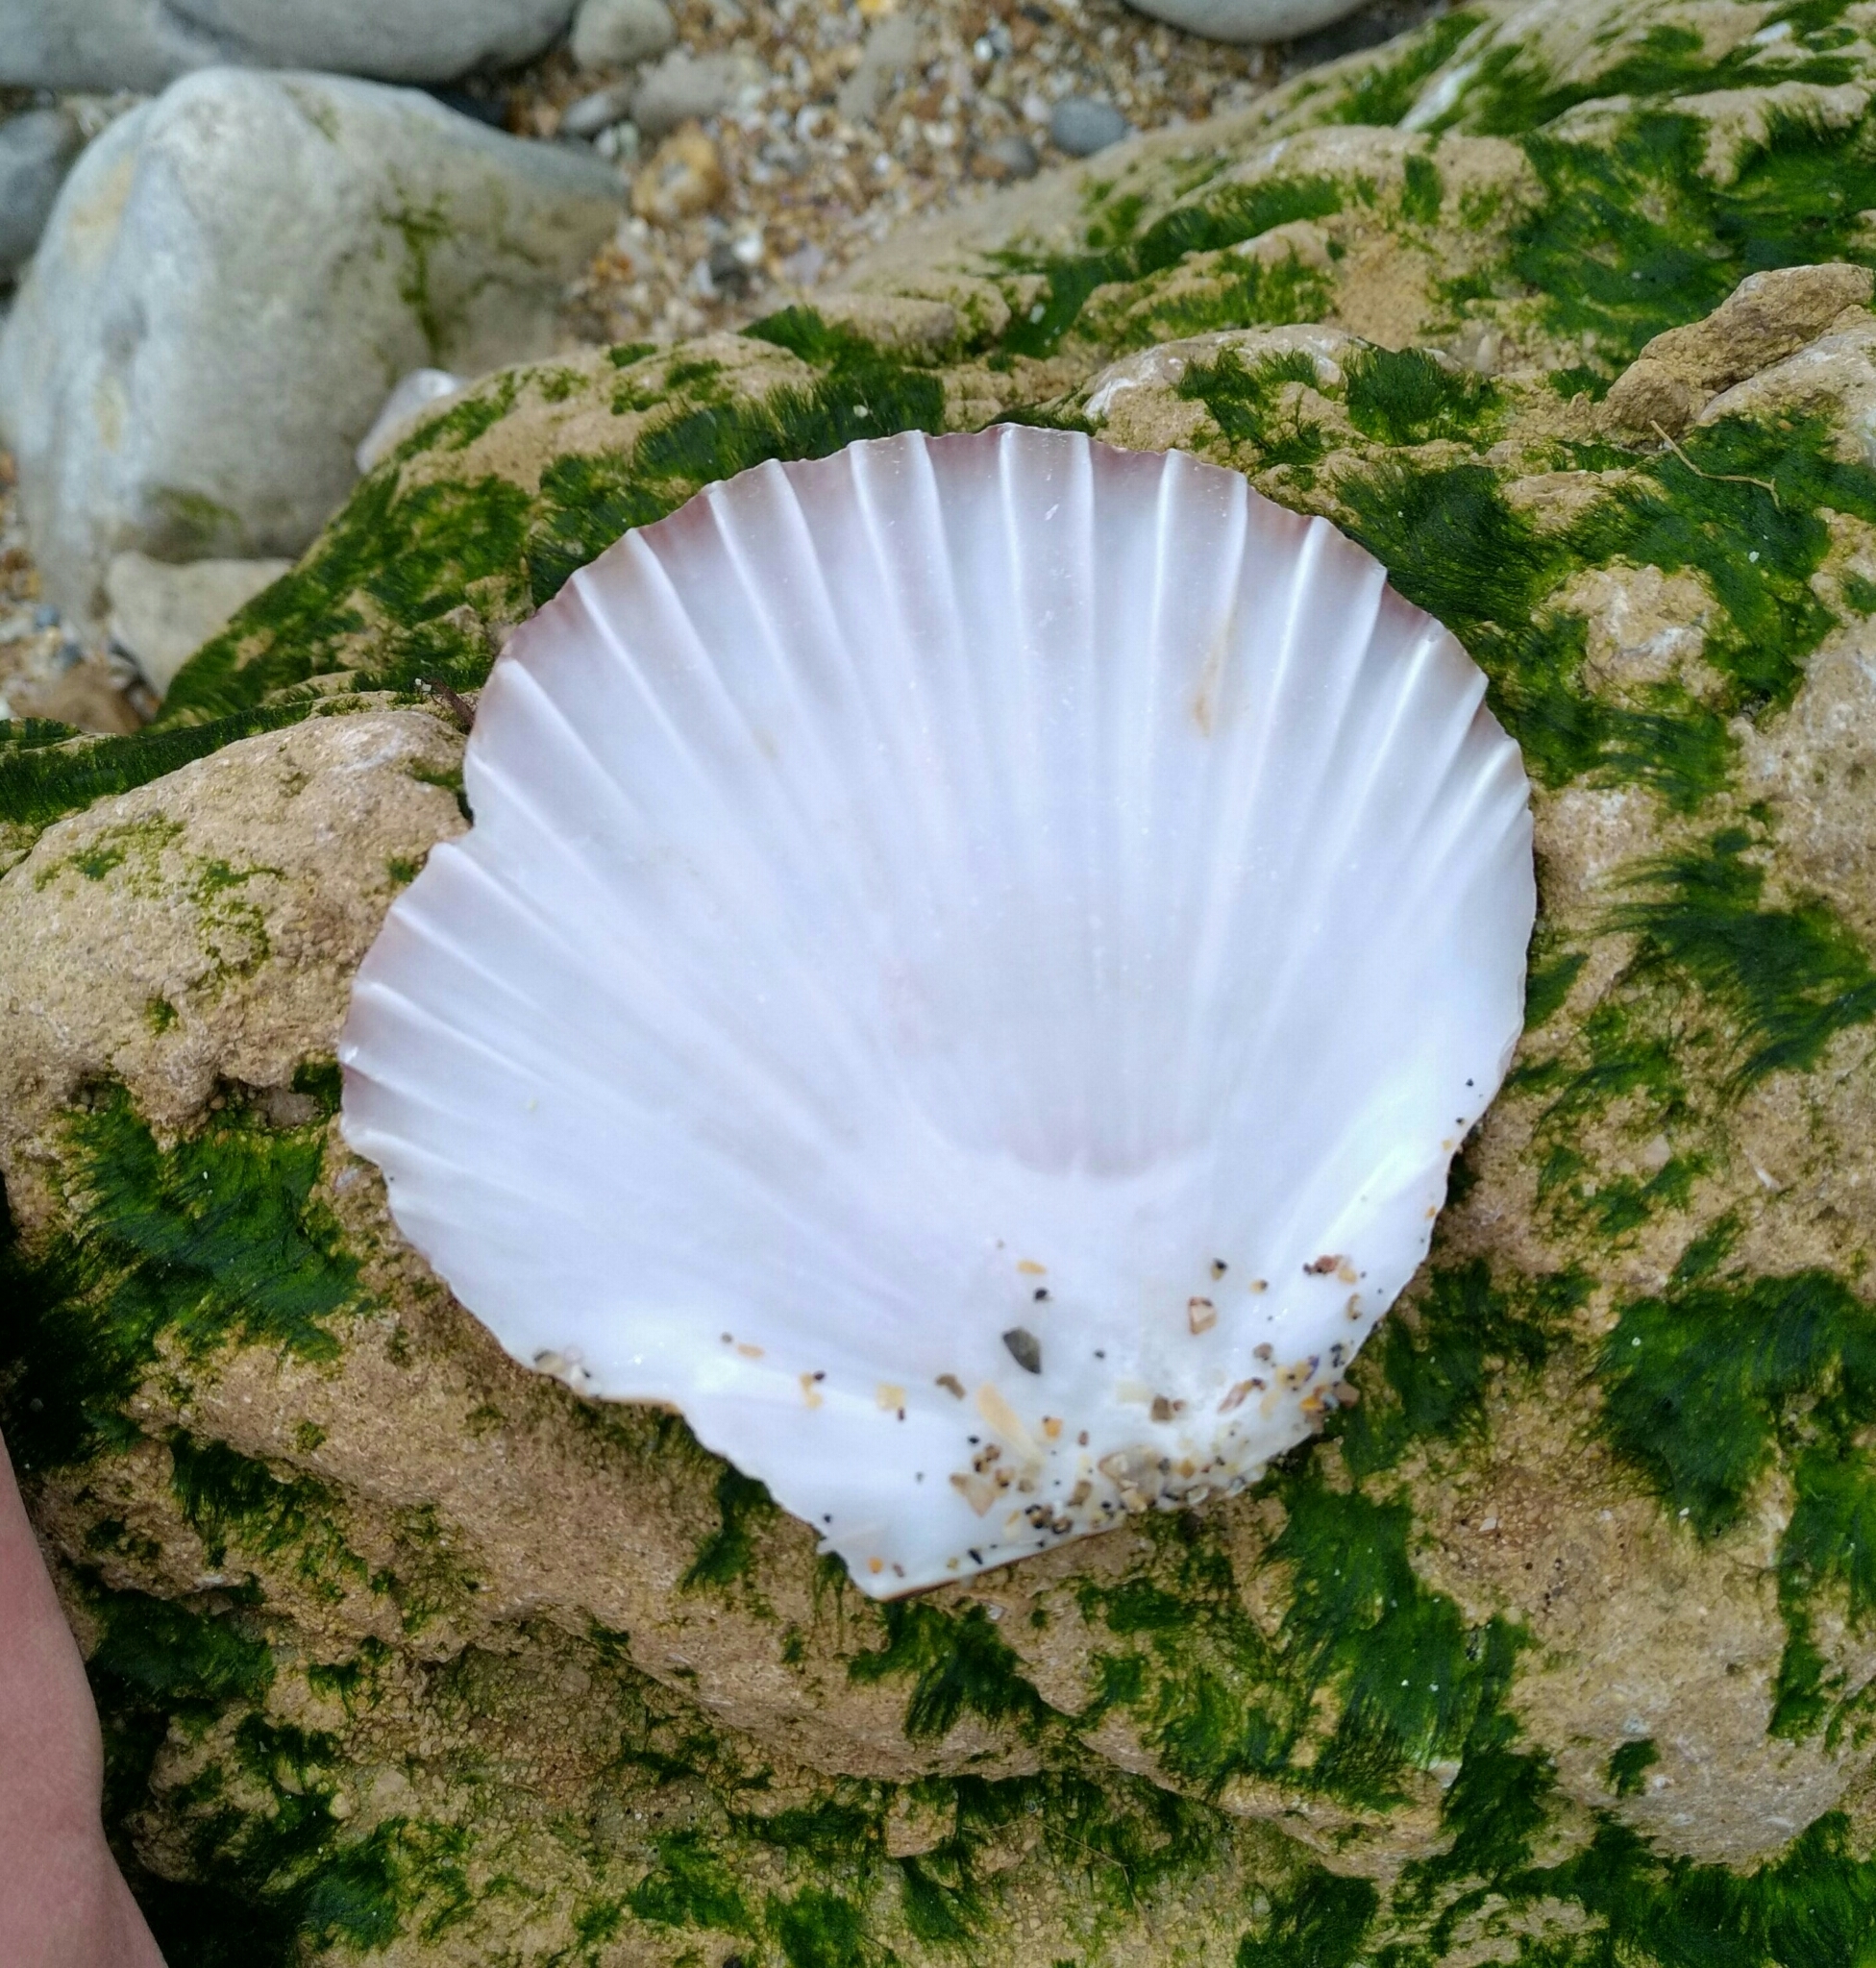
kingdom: Animalia
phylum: Mollusca
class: Bivalvia
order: Pectinida
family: Pectinidae
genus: Pecten
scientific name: Pecten maximus
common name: Great scallop
